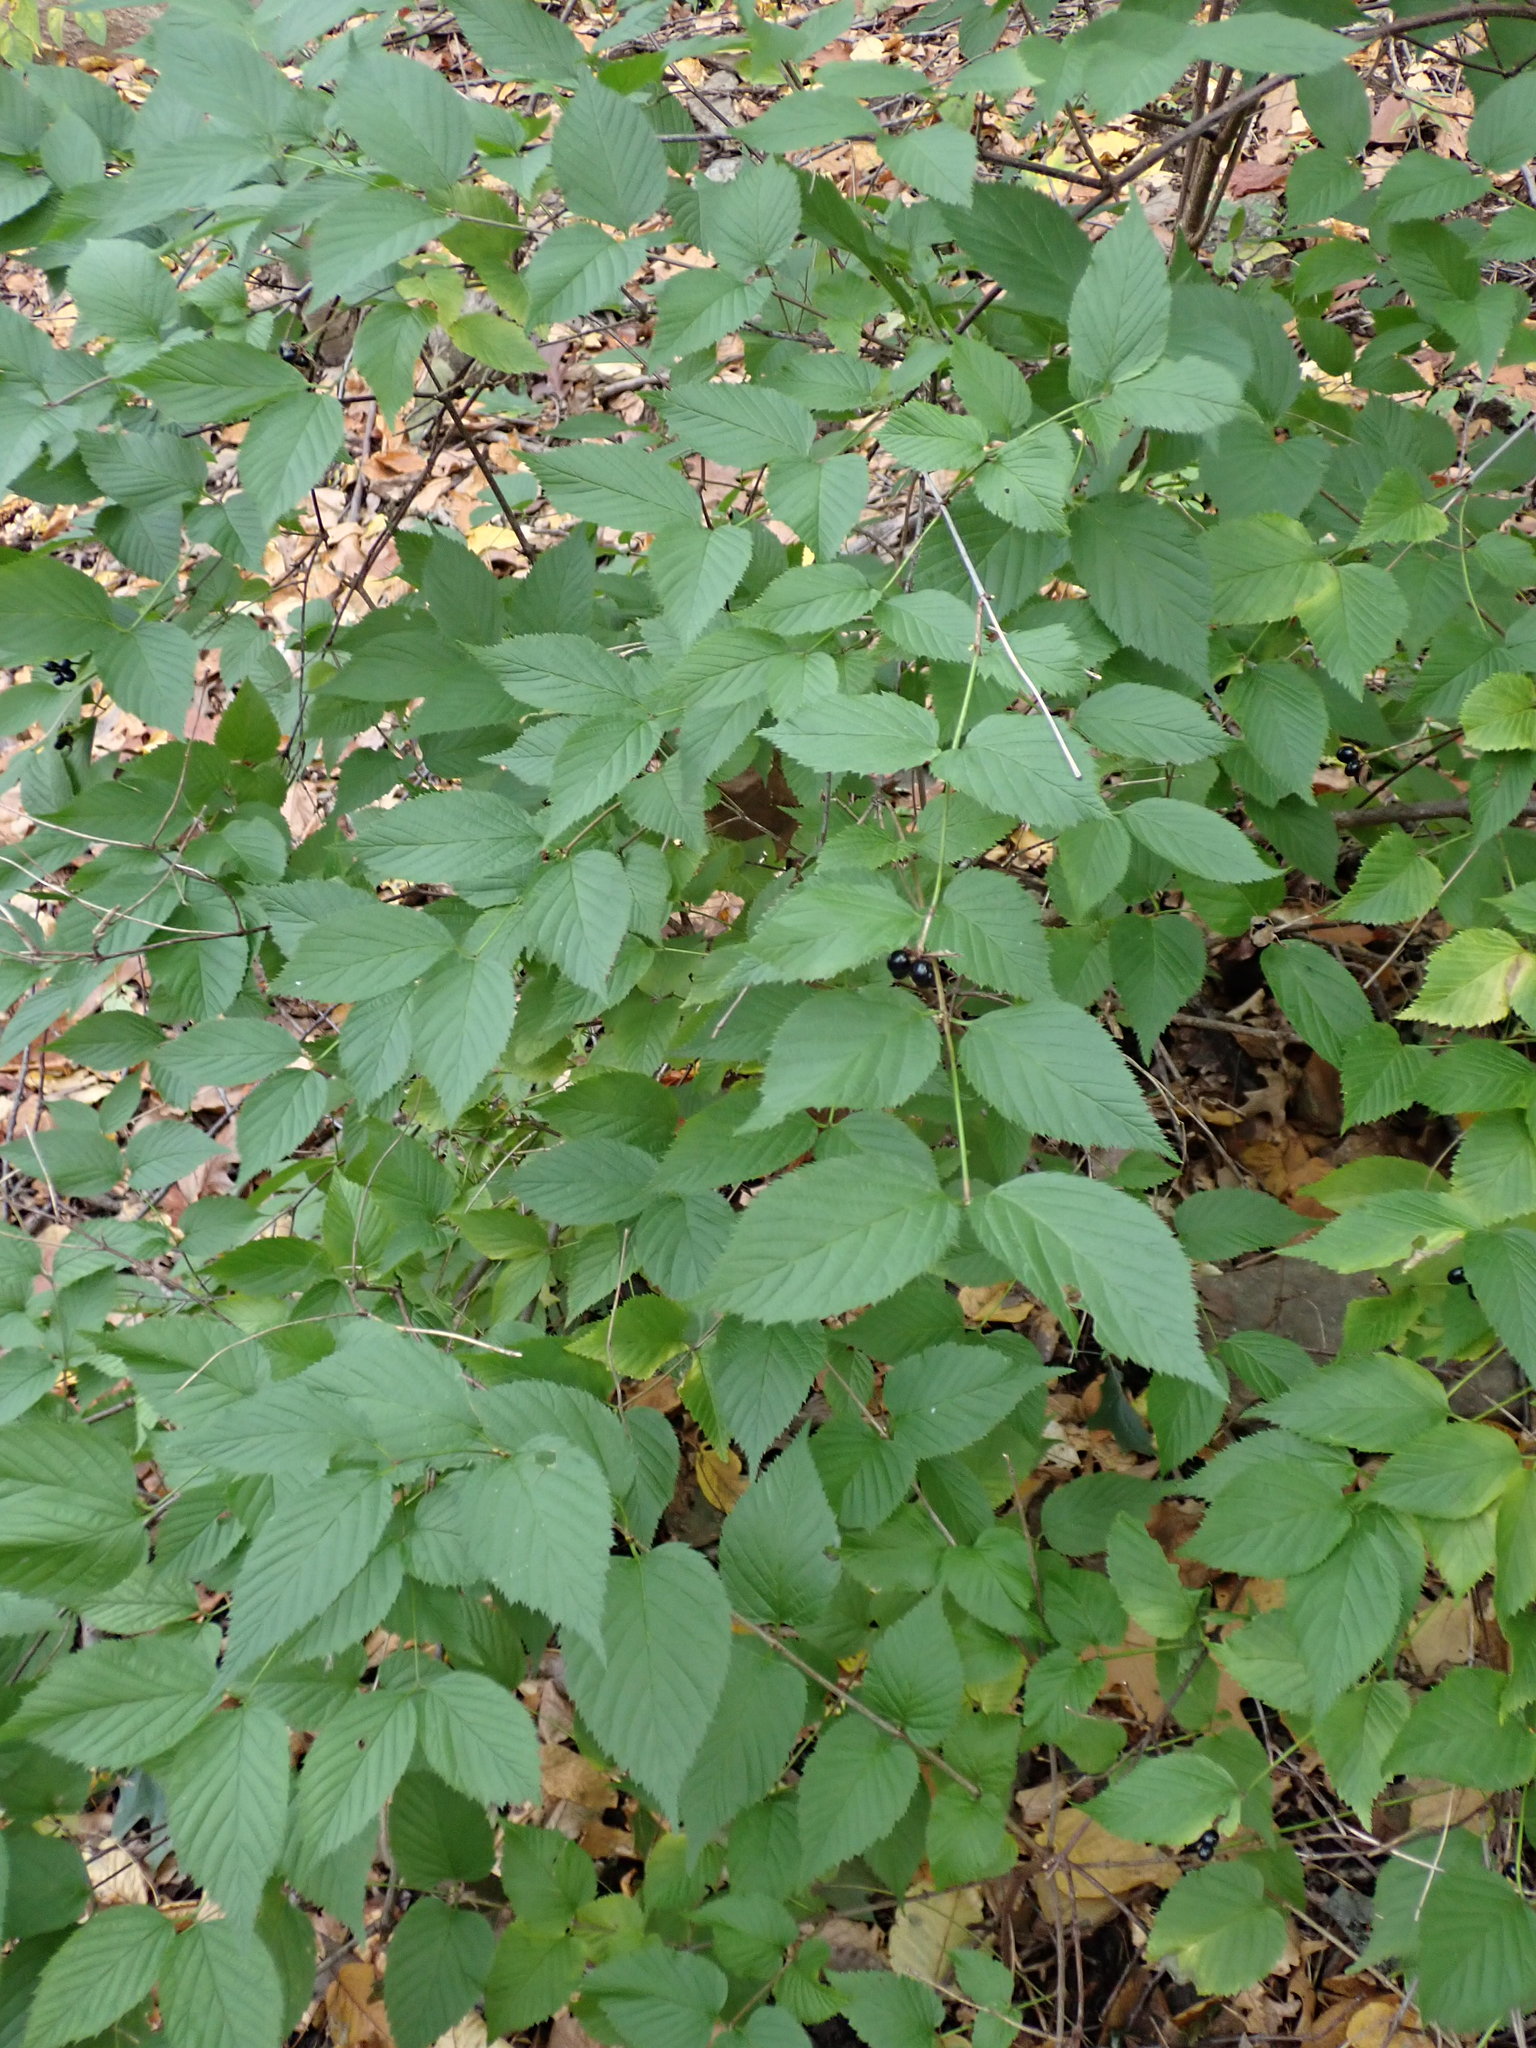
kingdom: Plantae
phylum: Tracheophyta
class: Magnoliopsida
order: Rosales
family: Rosaceae
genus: Rhodotypos
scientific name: Rhodotypos scandens
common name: Jetbead
